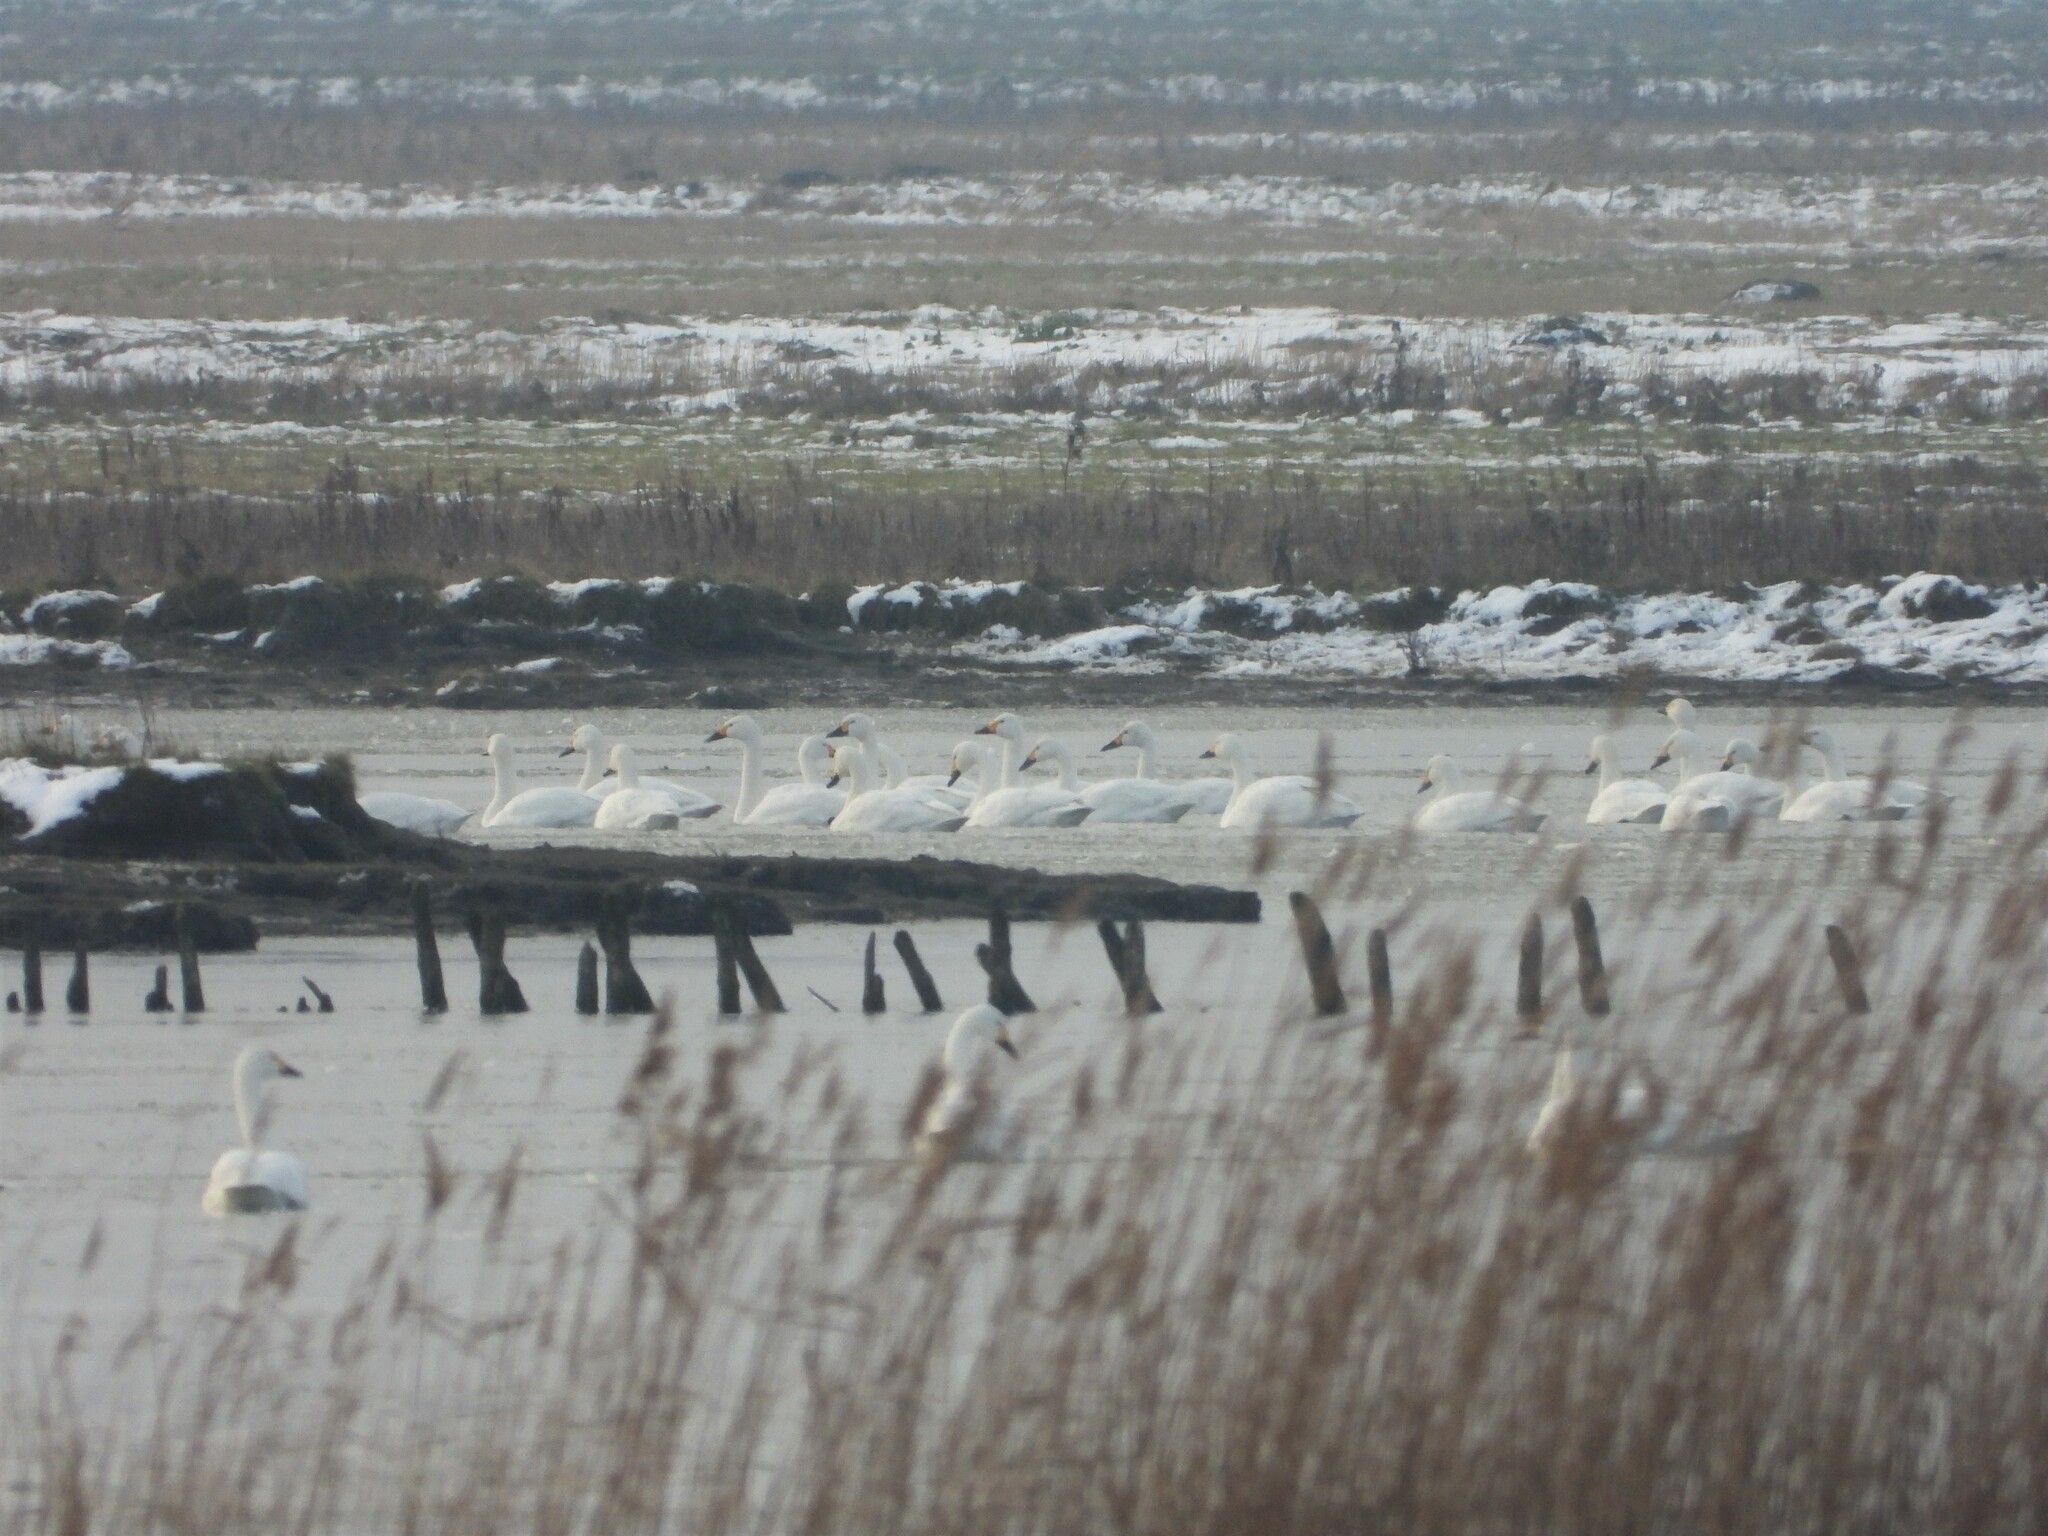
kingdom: Animalia
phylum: Chordata
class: Aves
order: Anseriformes
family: Anatidae
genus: Cygnus
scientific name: Cygnus cygnus
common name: Whooper swan
